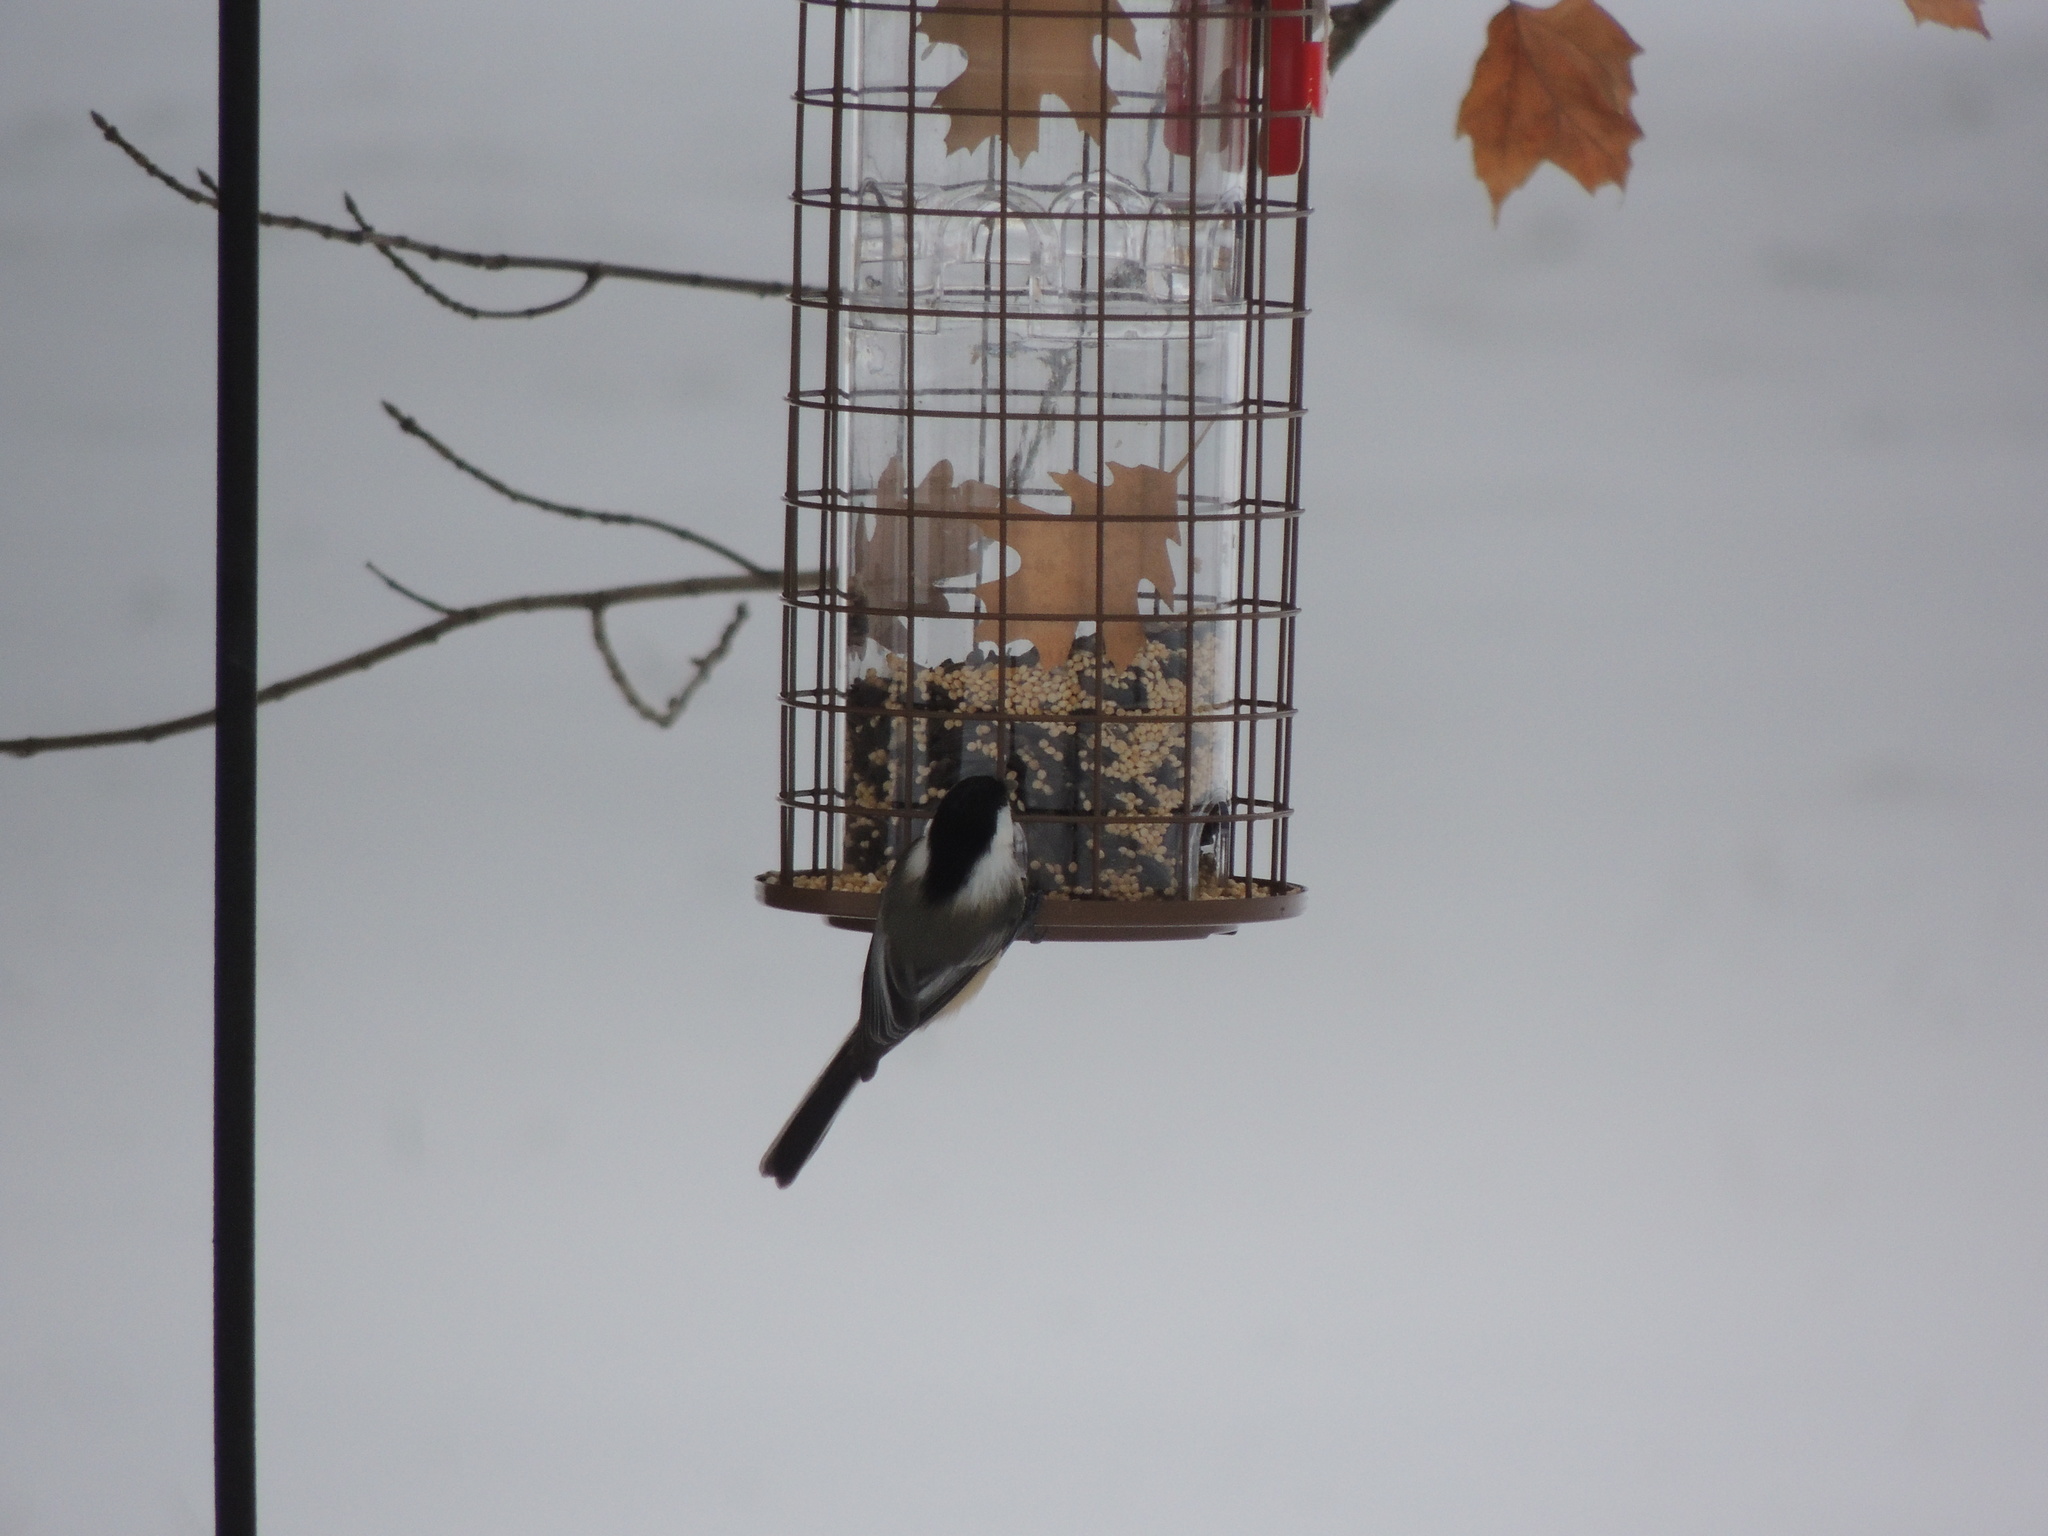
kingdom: Animalia
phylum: Chordata
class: Aves
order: Passeriformes
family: Paridae
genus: Poecile
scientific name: Poecile atricapillus
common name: Black-capped chickadee
